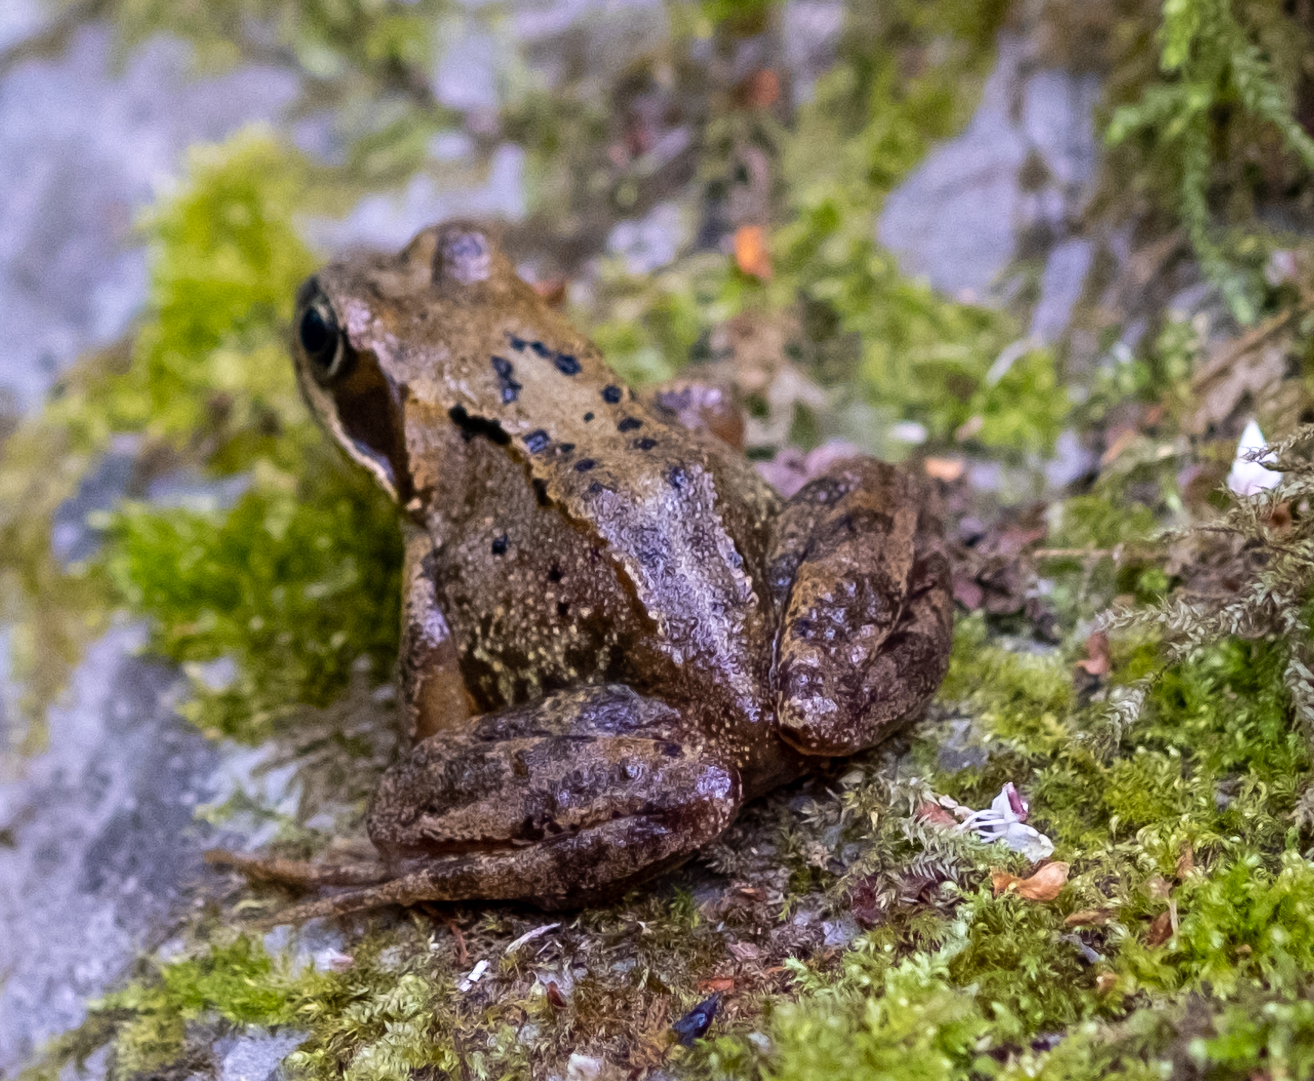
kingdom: Animalia
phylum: Chordata
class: Amphibia
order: Anura
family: Ranidae
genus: Rana
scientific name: Rana temporaria
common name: Common frog
